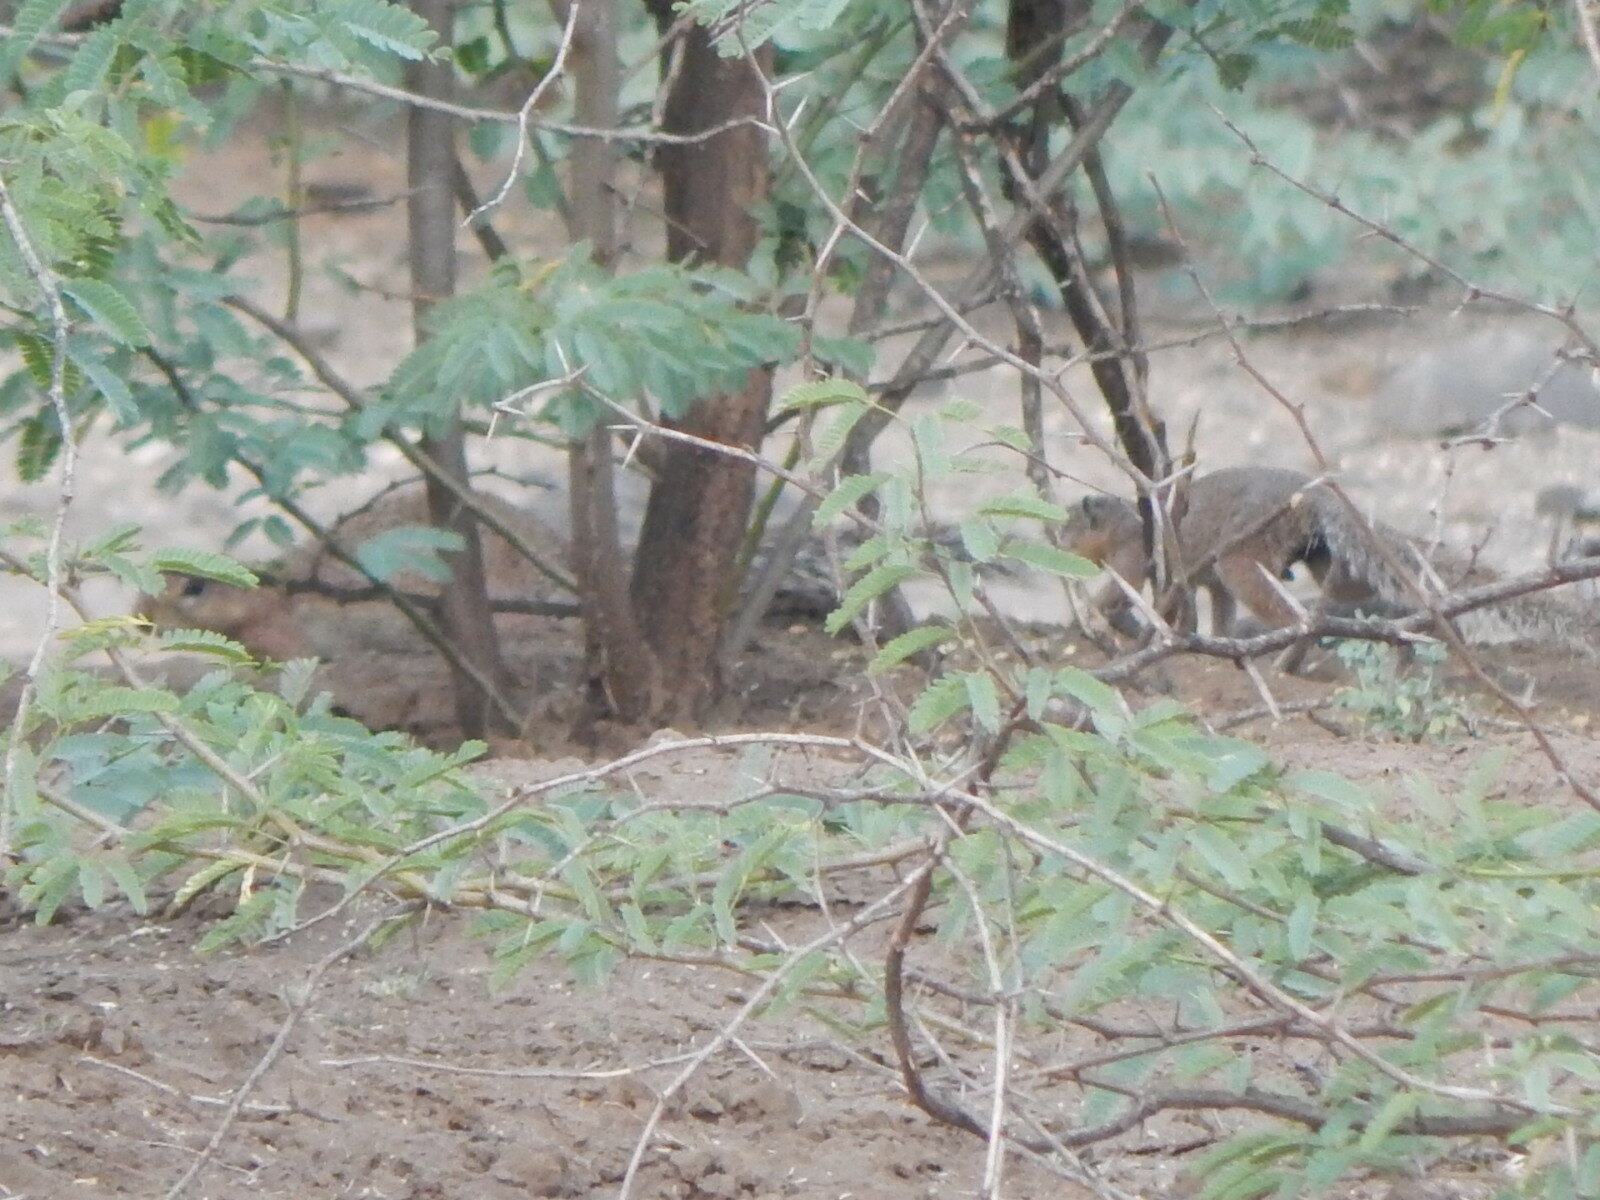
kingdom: Animalia
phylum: Chordata
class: Mammalia
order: Rodentia
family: Sciuridae
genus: Xerus
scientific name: Xerus rutilus
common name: Unstriped ground squirrel
